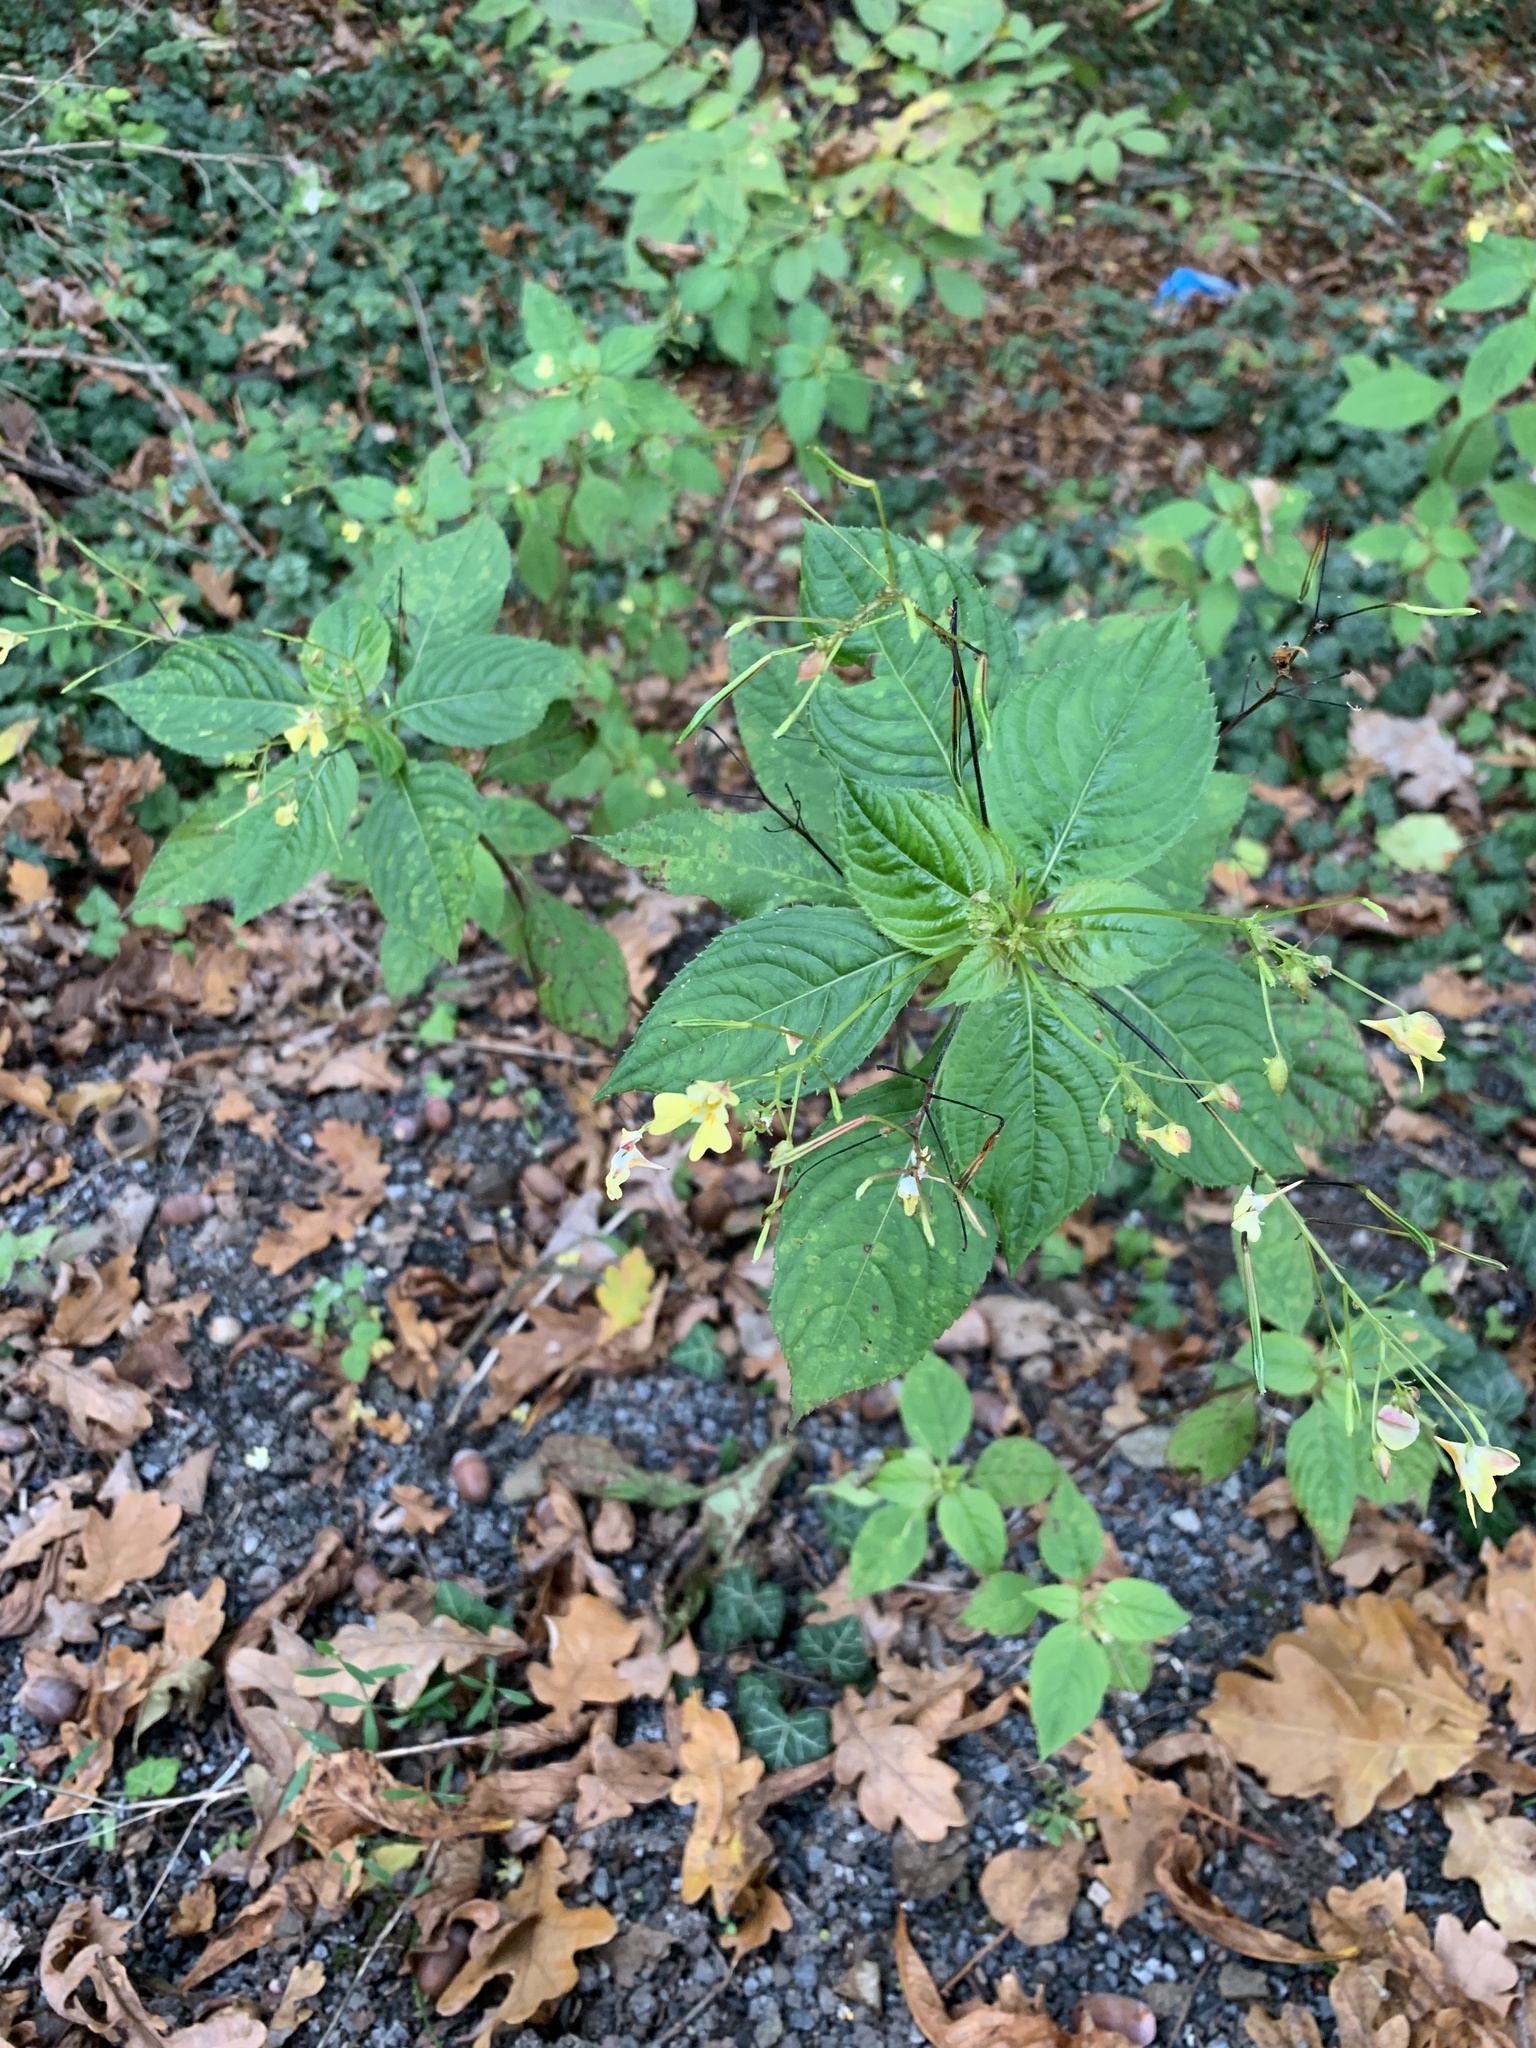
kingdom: Plantae
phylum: Tracheophyta
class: Magnoliopsida
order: Ericales
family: Balsaminaceae
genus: Impatiens
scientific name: Impatiens parviflora
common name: Small balsam
